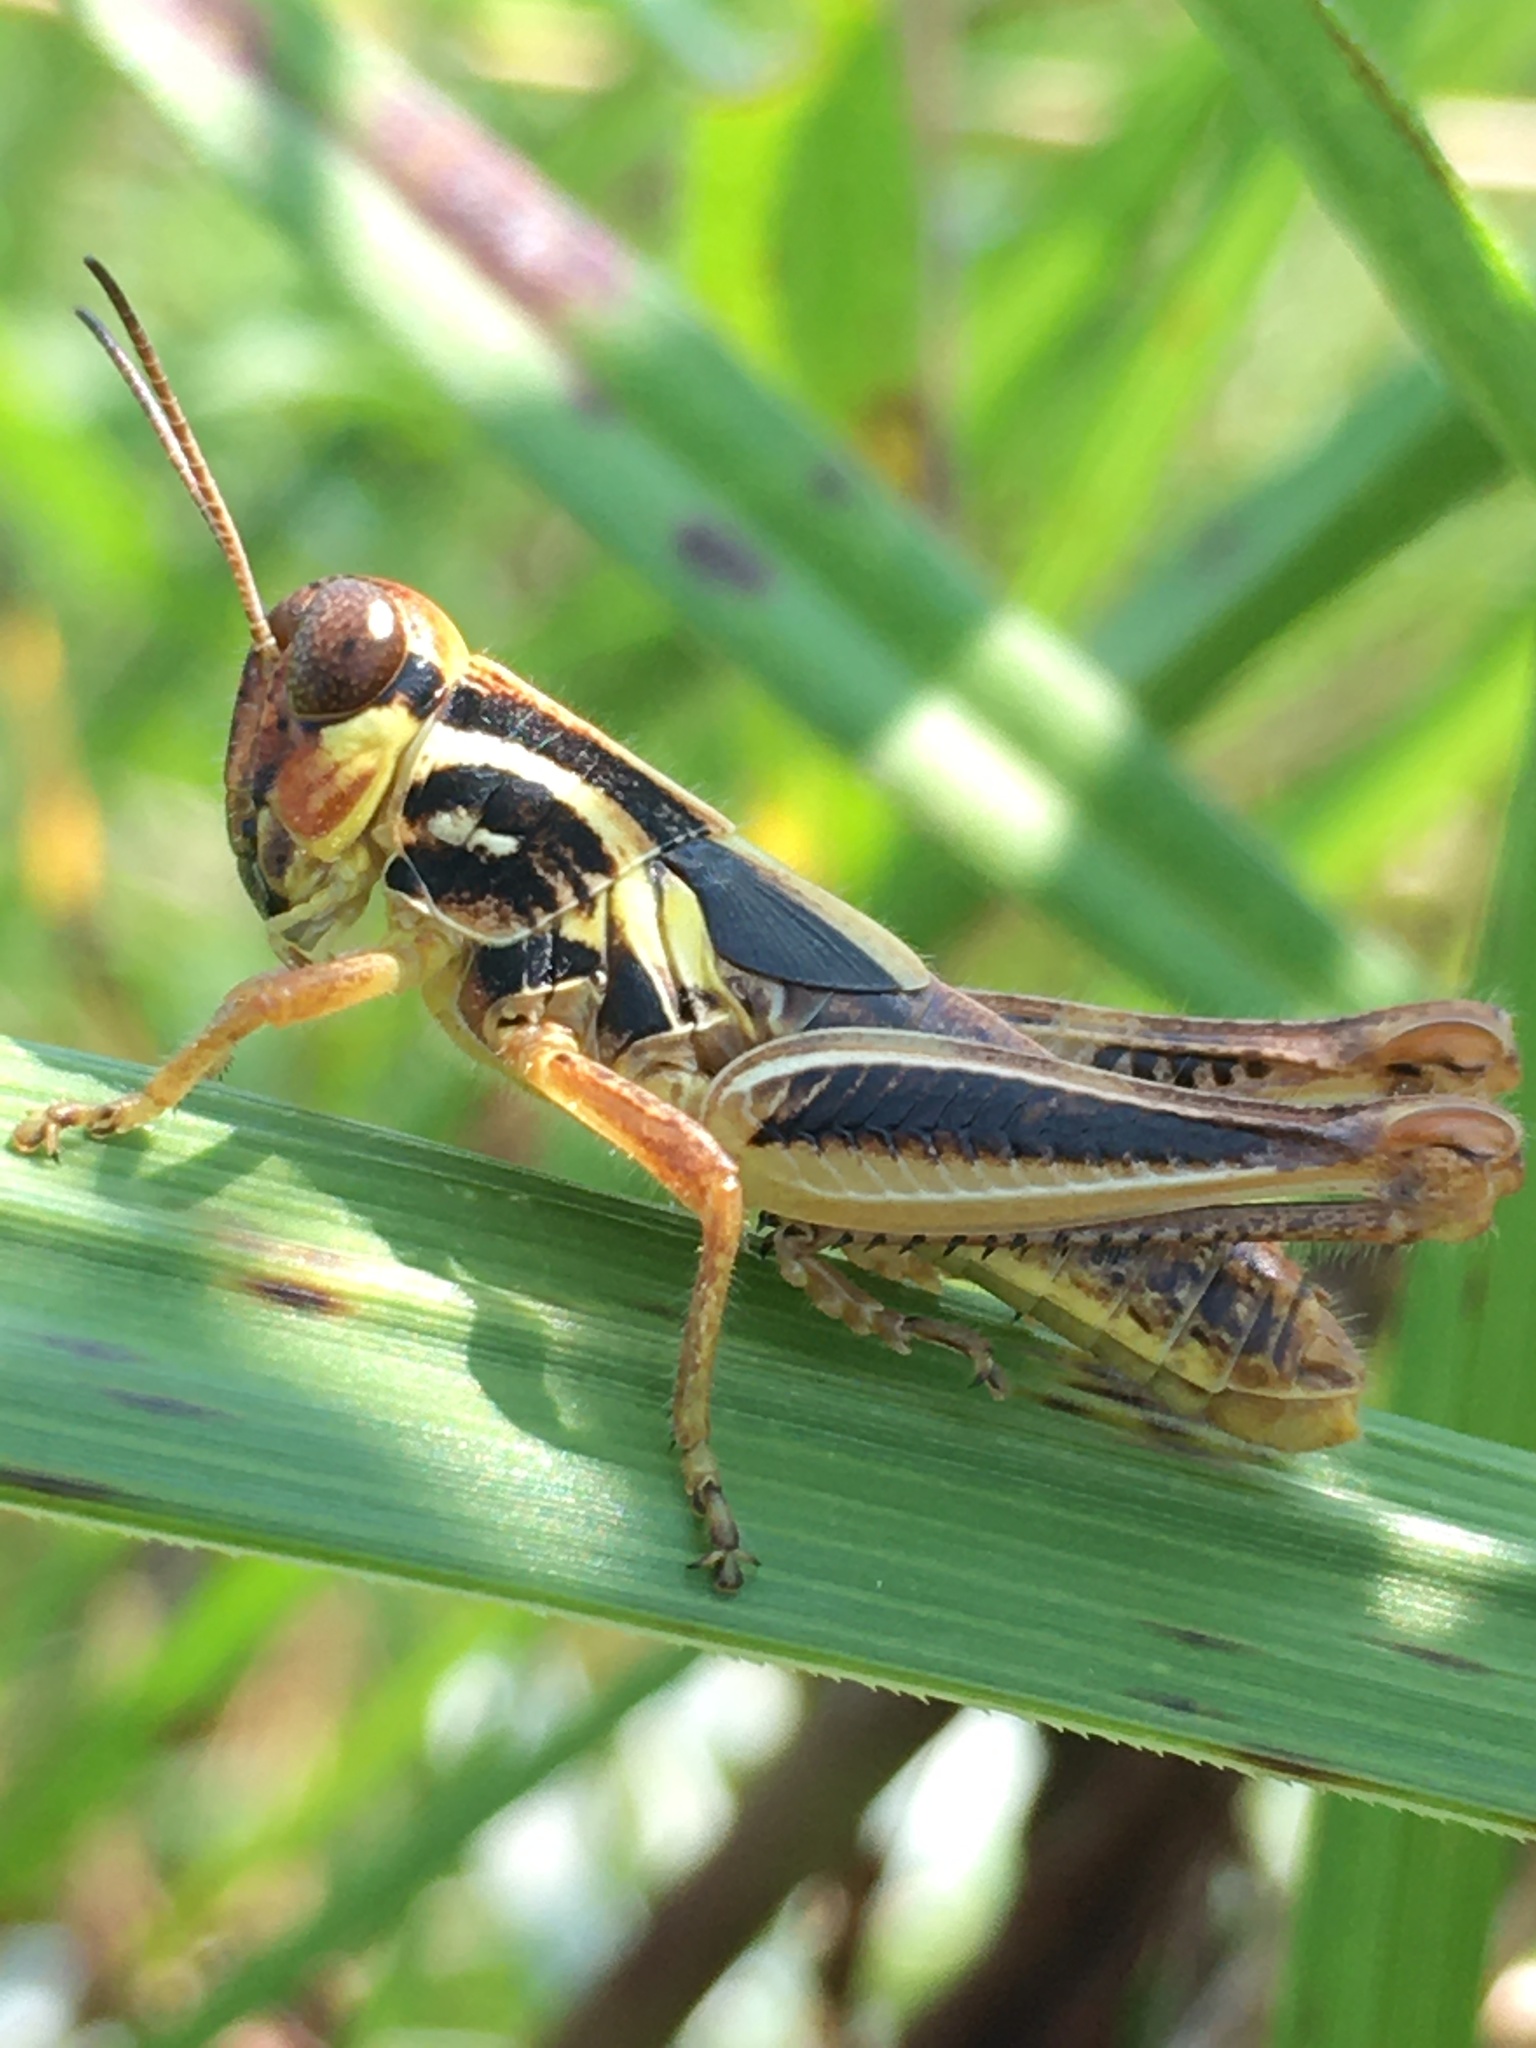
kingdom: Animalia
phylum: Arthropoda
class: Insecta
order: Orthoptera
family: Acrididae
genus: Melanoplus
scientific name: Melanoplus femurrubrum
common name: Red-legged grasshopper
